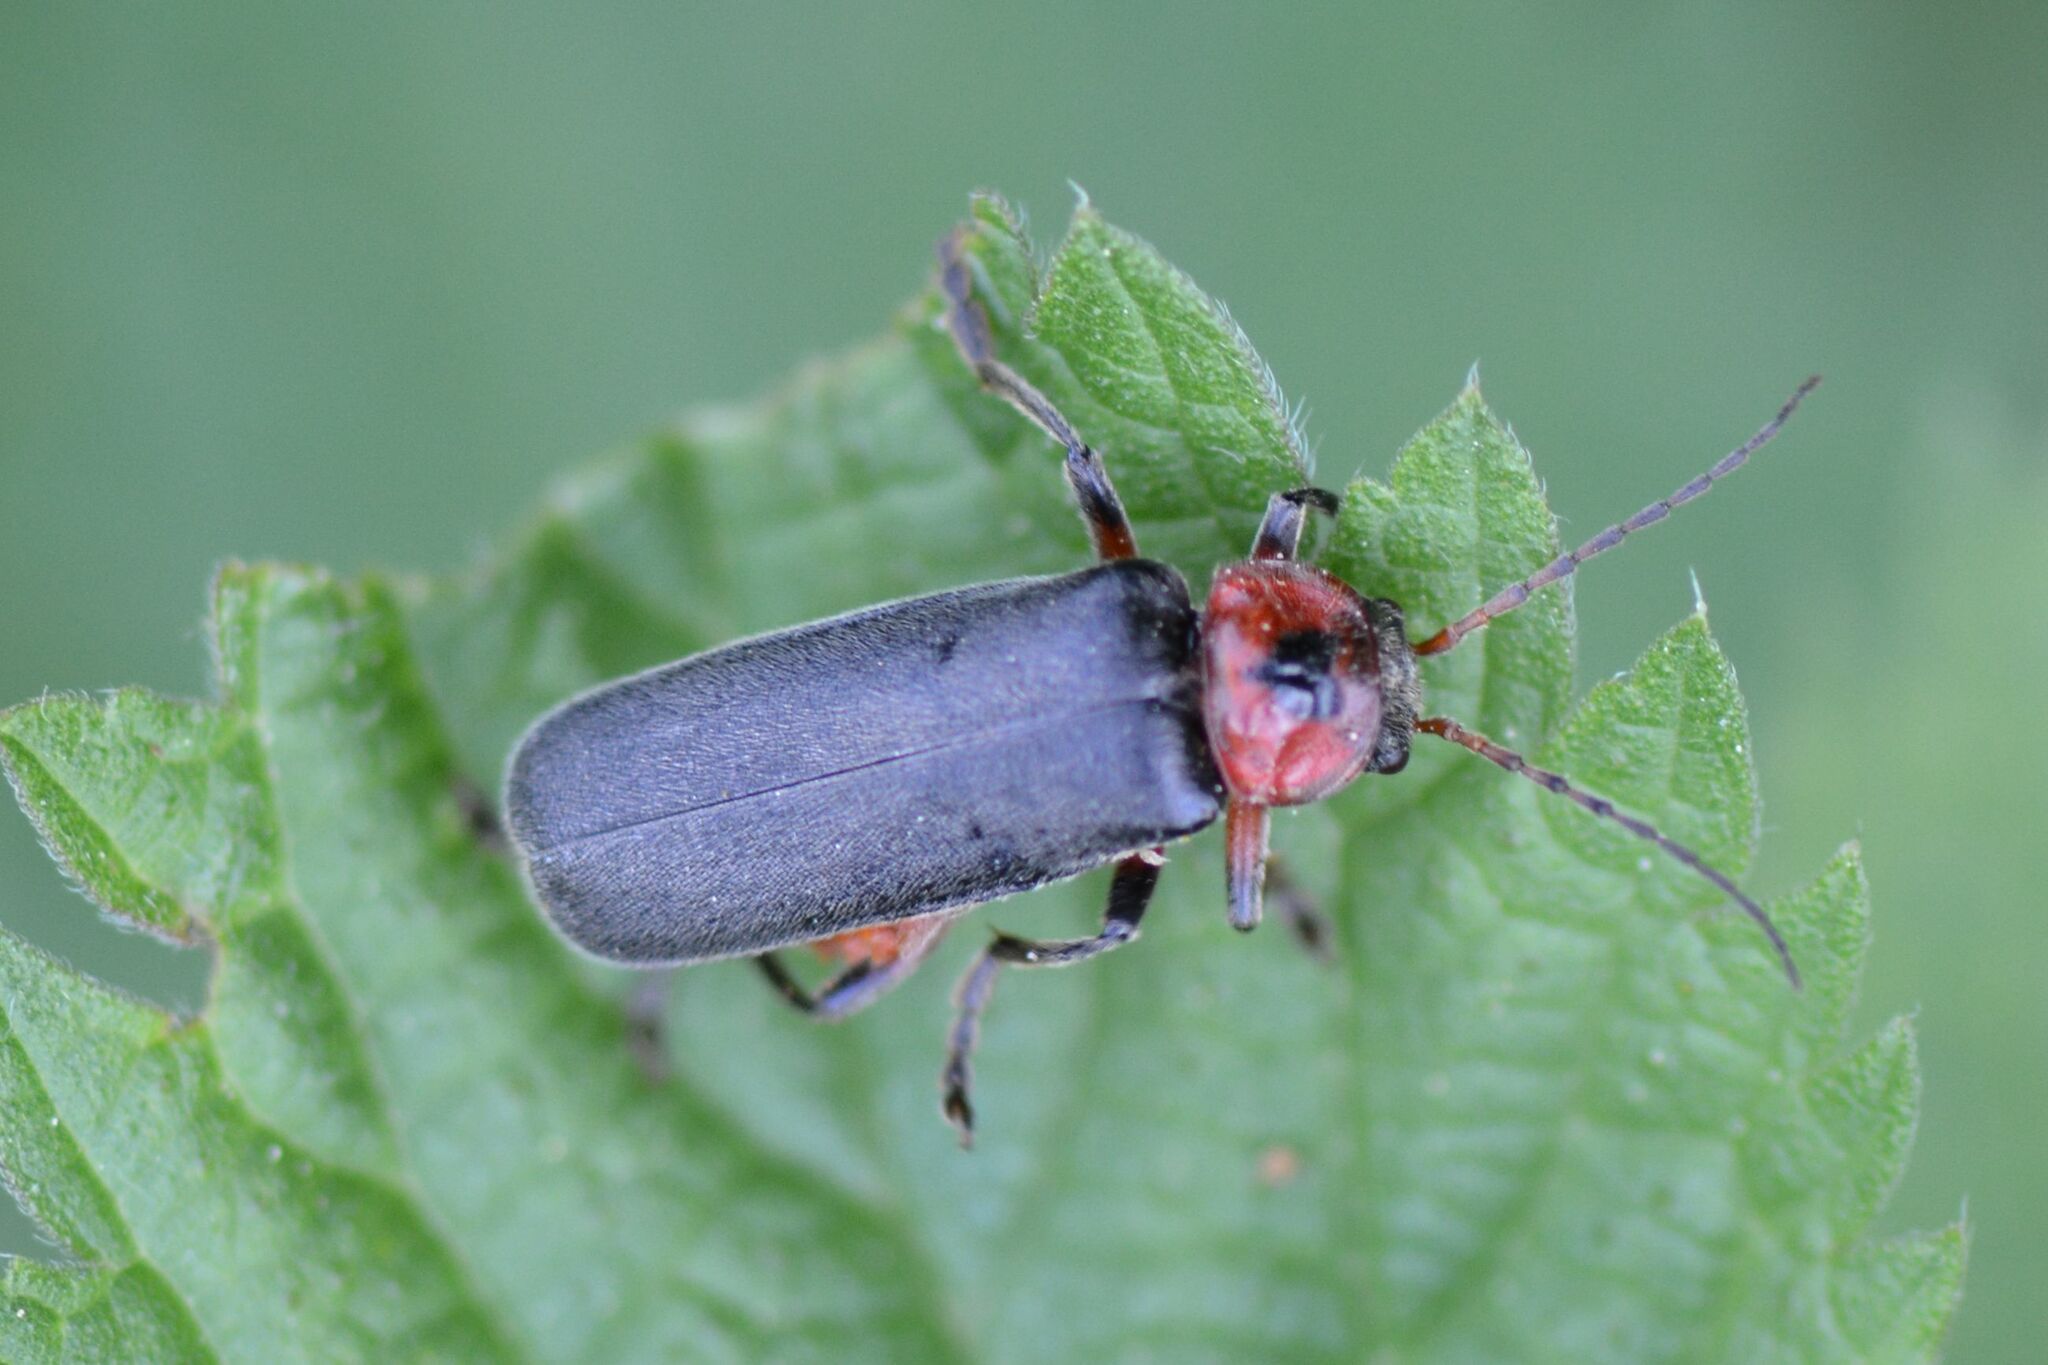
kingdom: Animalia
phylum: Arthropoda
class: Insecta
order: Coleoptera
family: Cantharidae
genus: Cantharis
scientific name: Cantharis rustica
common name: Soldier beetle
